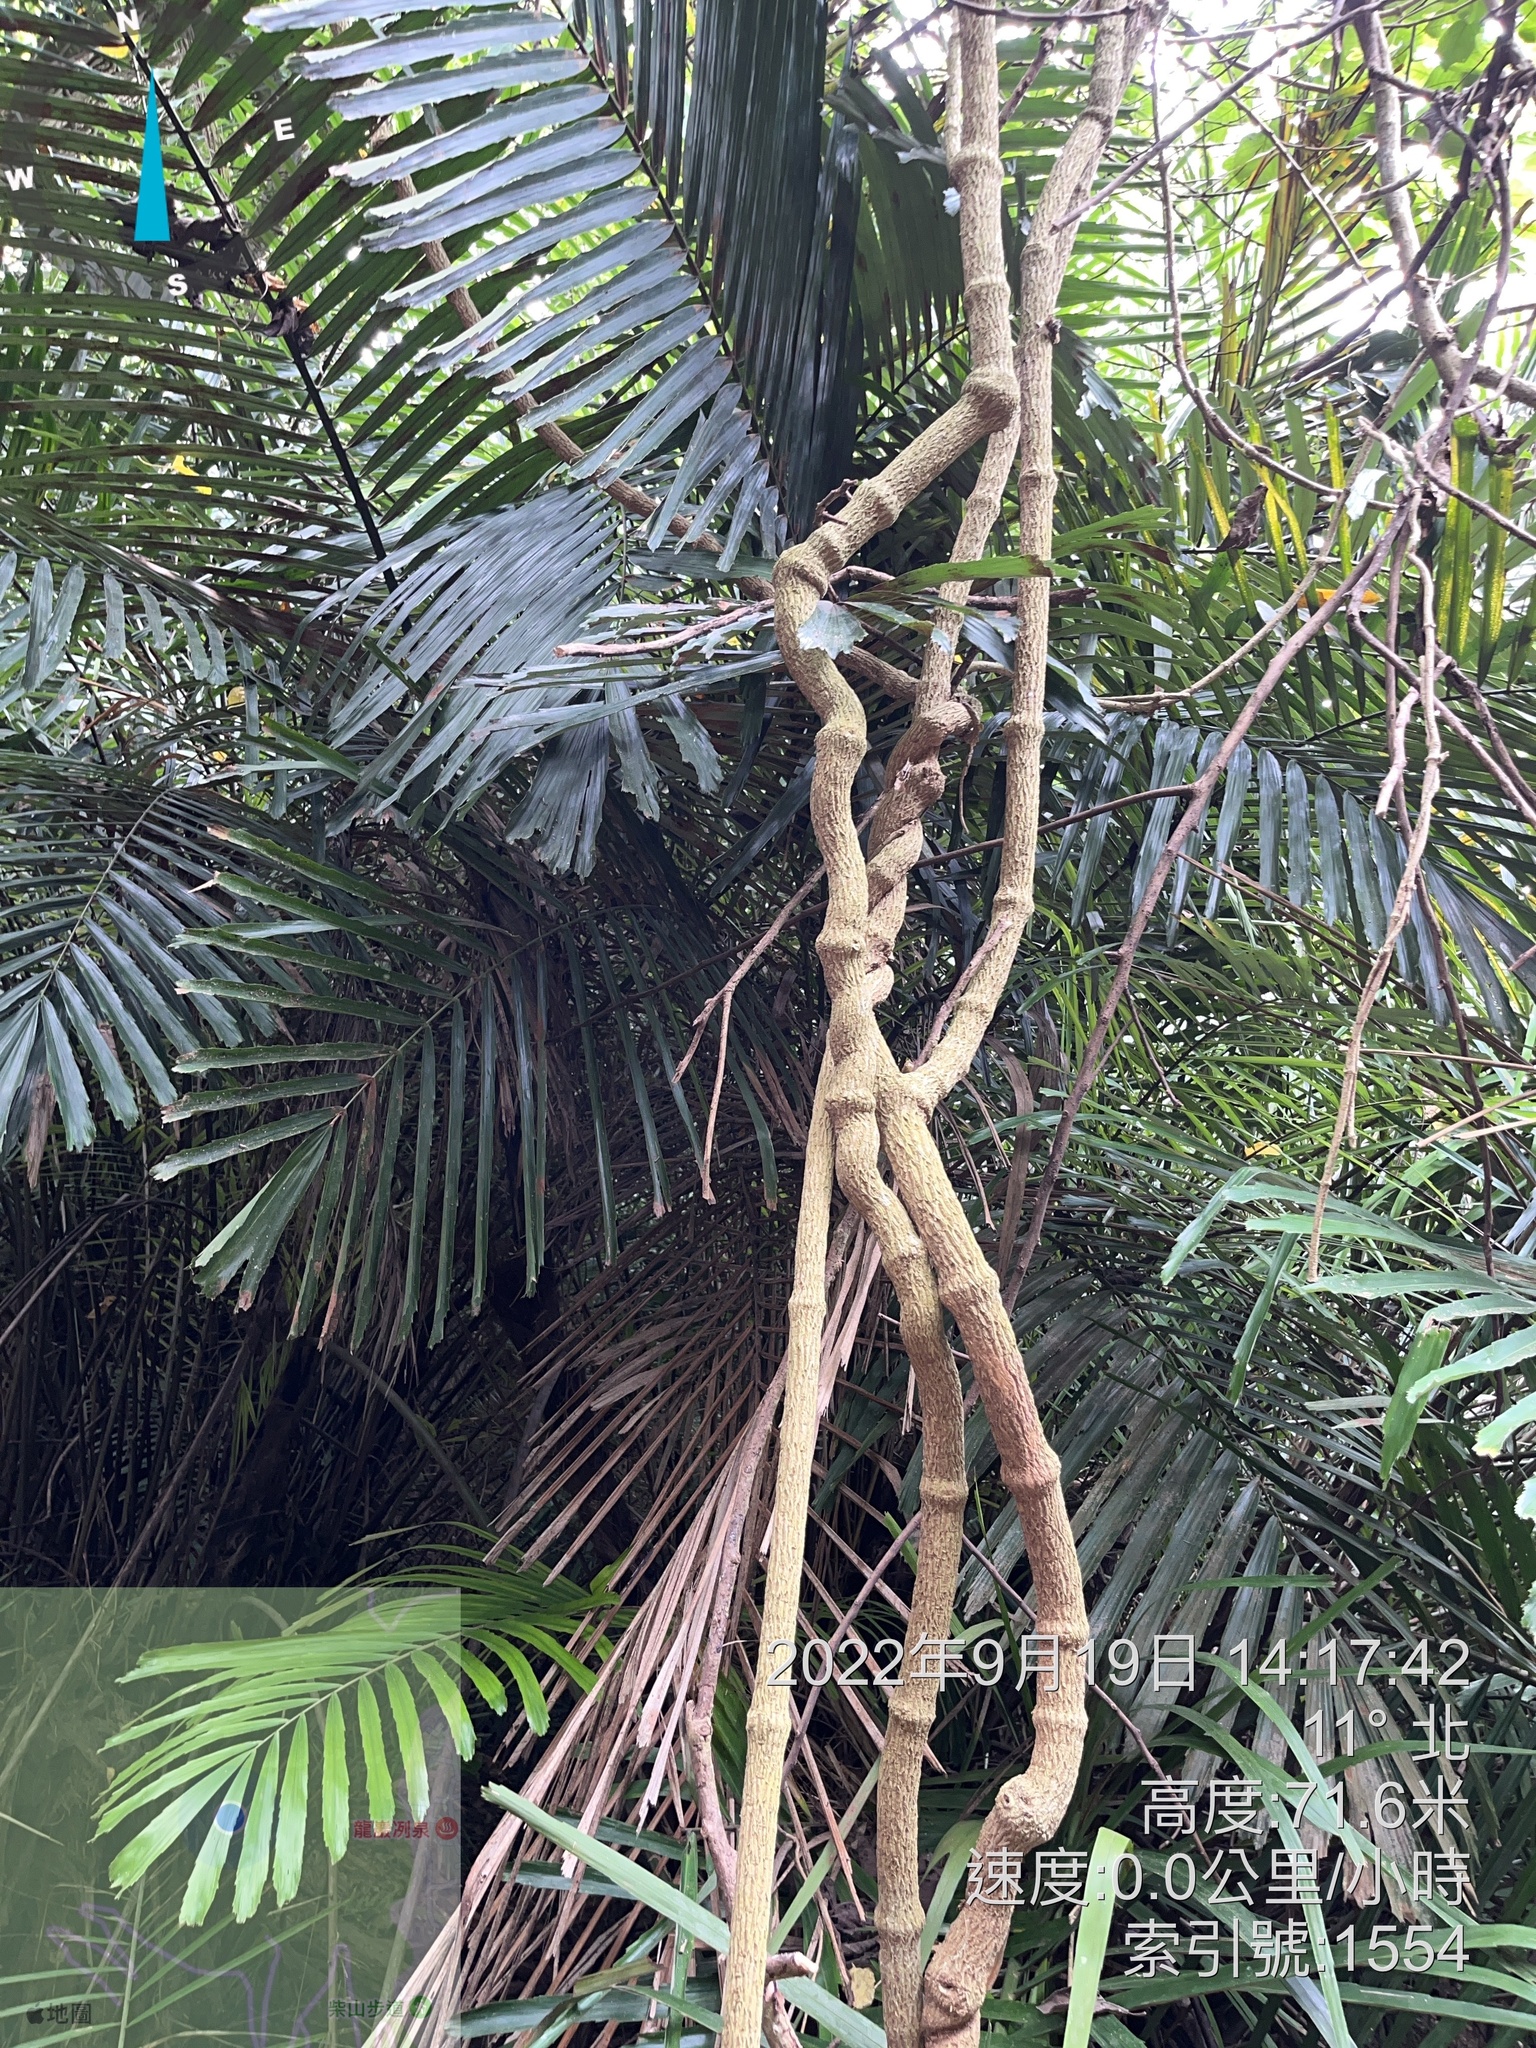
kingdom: Plantae
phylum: Tracheophyta
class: Magnoliopsida
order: Gentianales
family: Apocynaceae
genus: Stephanotis
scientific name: Stephanotis volubilis
